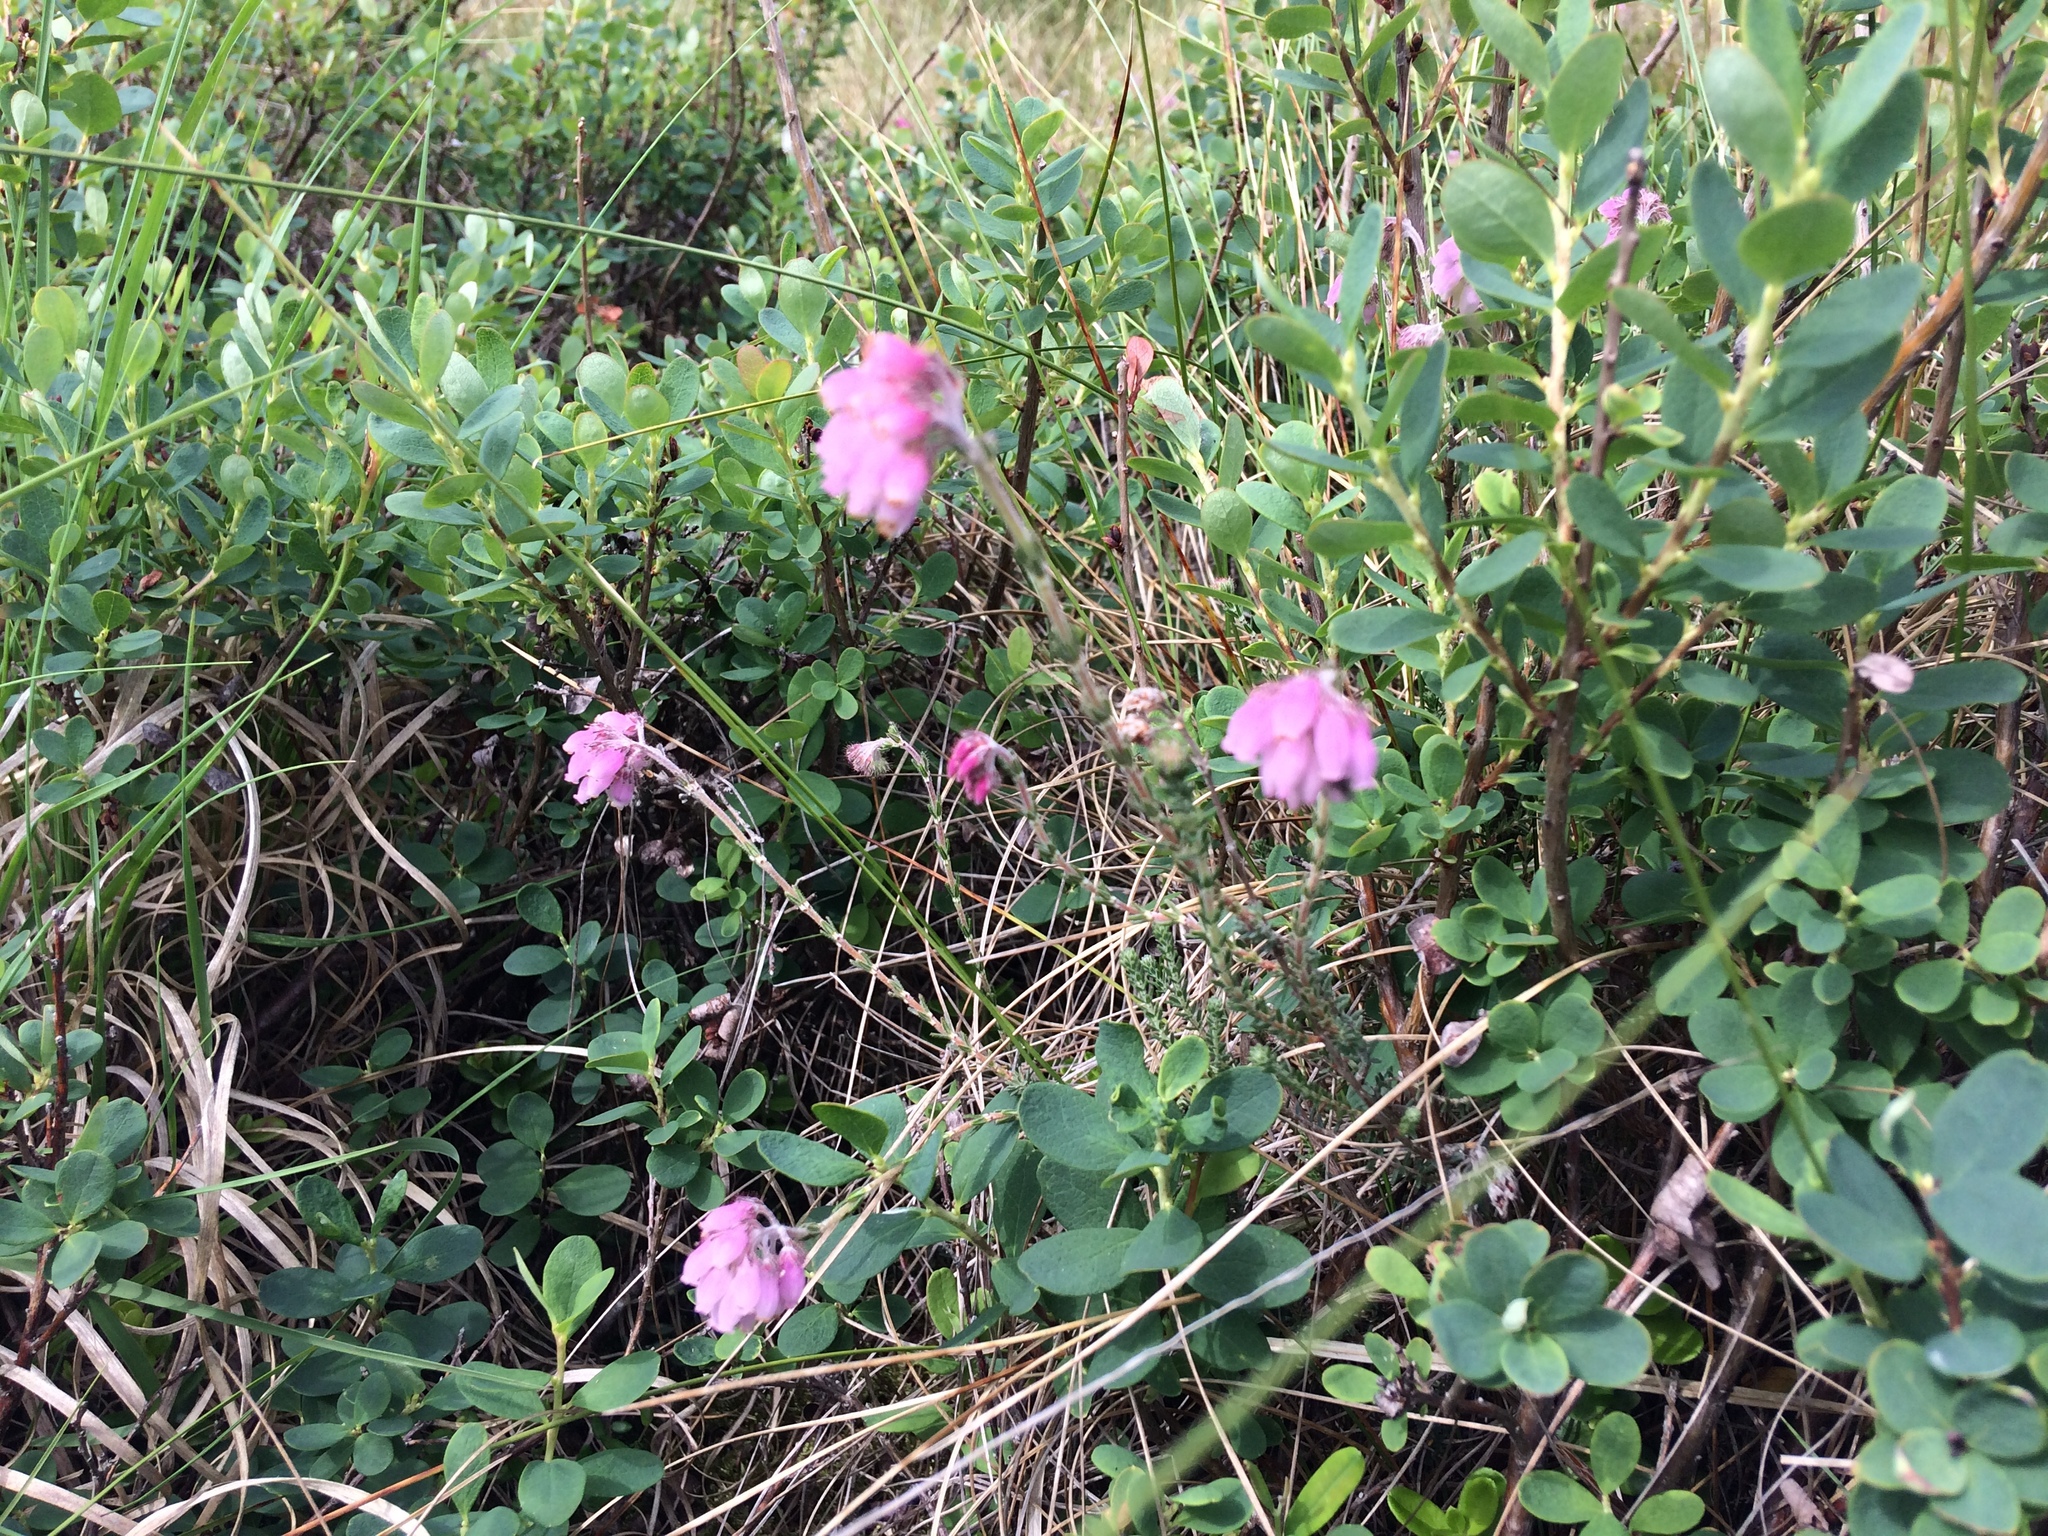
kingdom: Plantae
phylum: Tracheophyta
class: Magnoliopsida
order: Ericales
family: Ericaceae
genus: Erica
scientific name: Erica tetralix
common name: Cross-leaved heath
